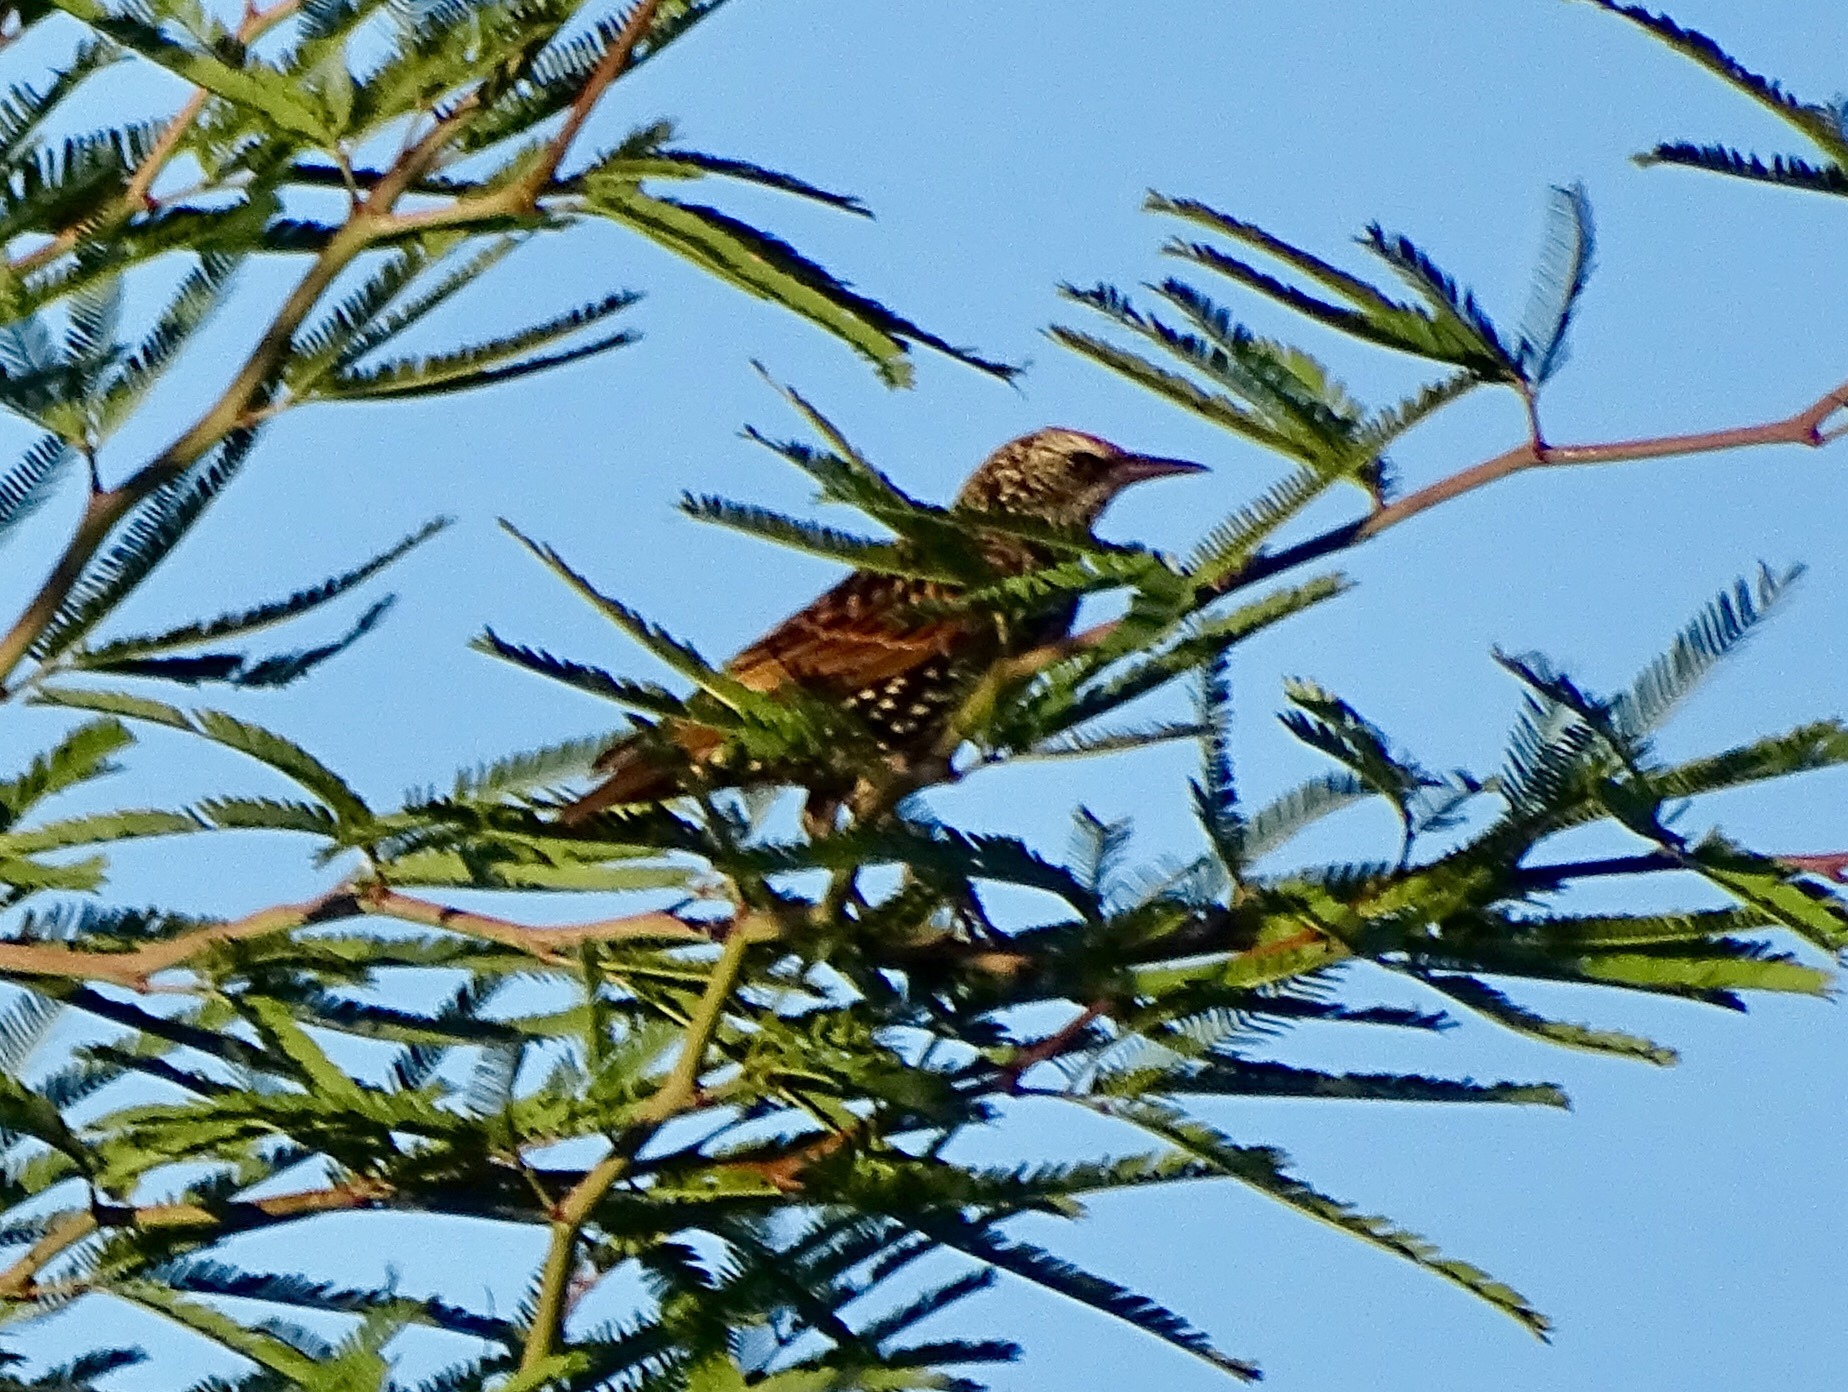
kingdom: Animalia
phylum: Chordata
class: Aves
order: Passeriformes
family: Sturnidae
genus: Sturnus
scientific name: Sturnus vulgaris
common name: Common starling
